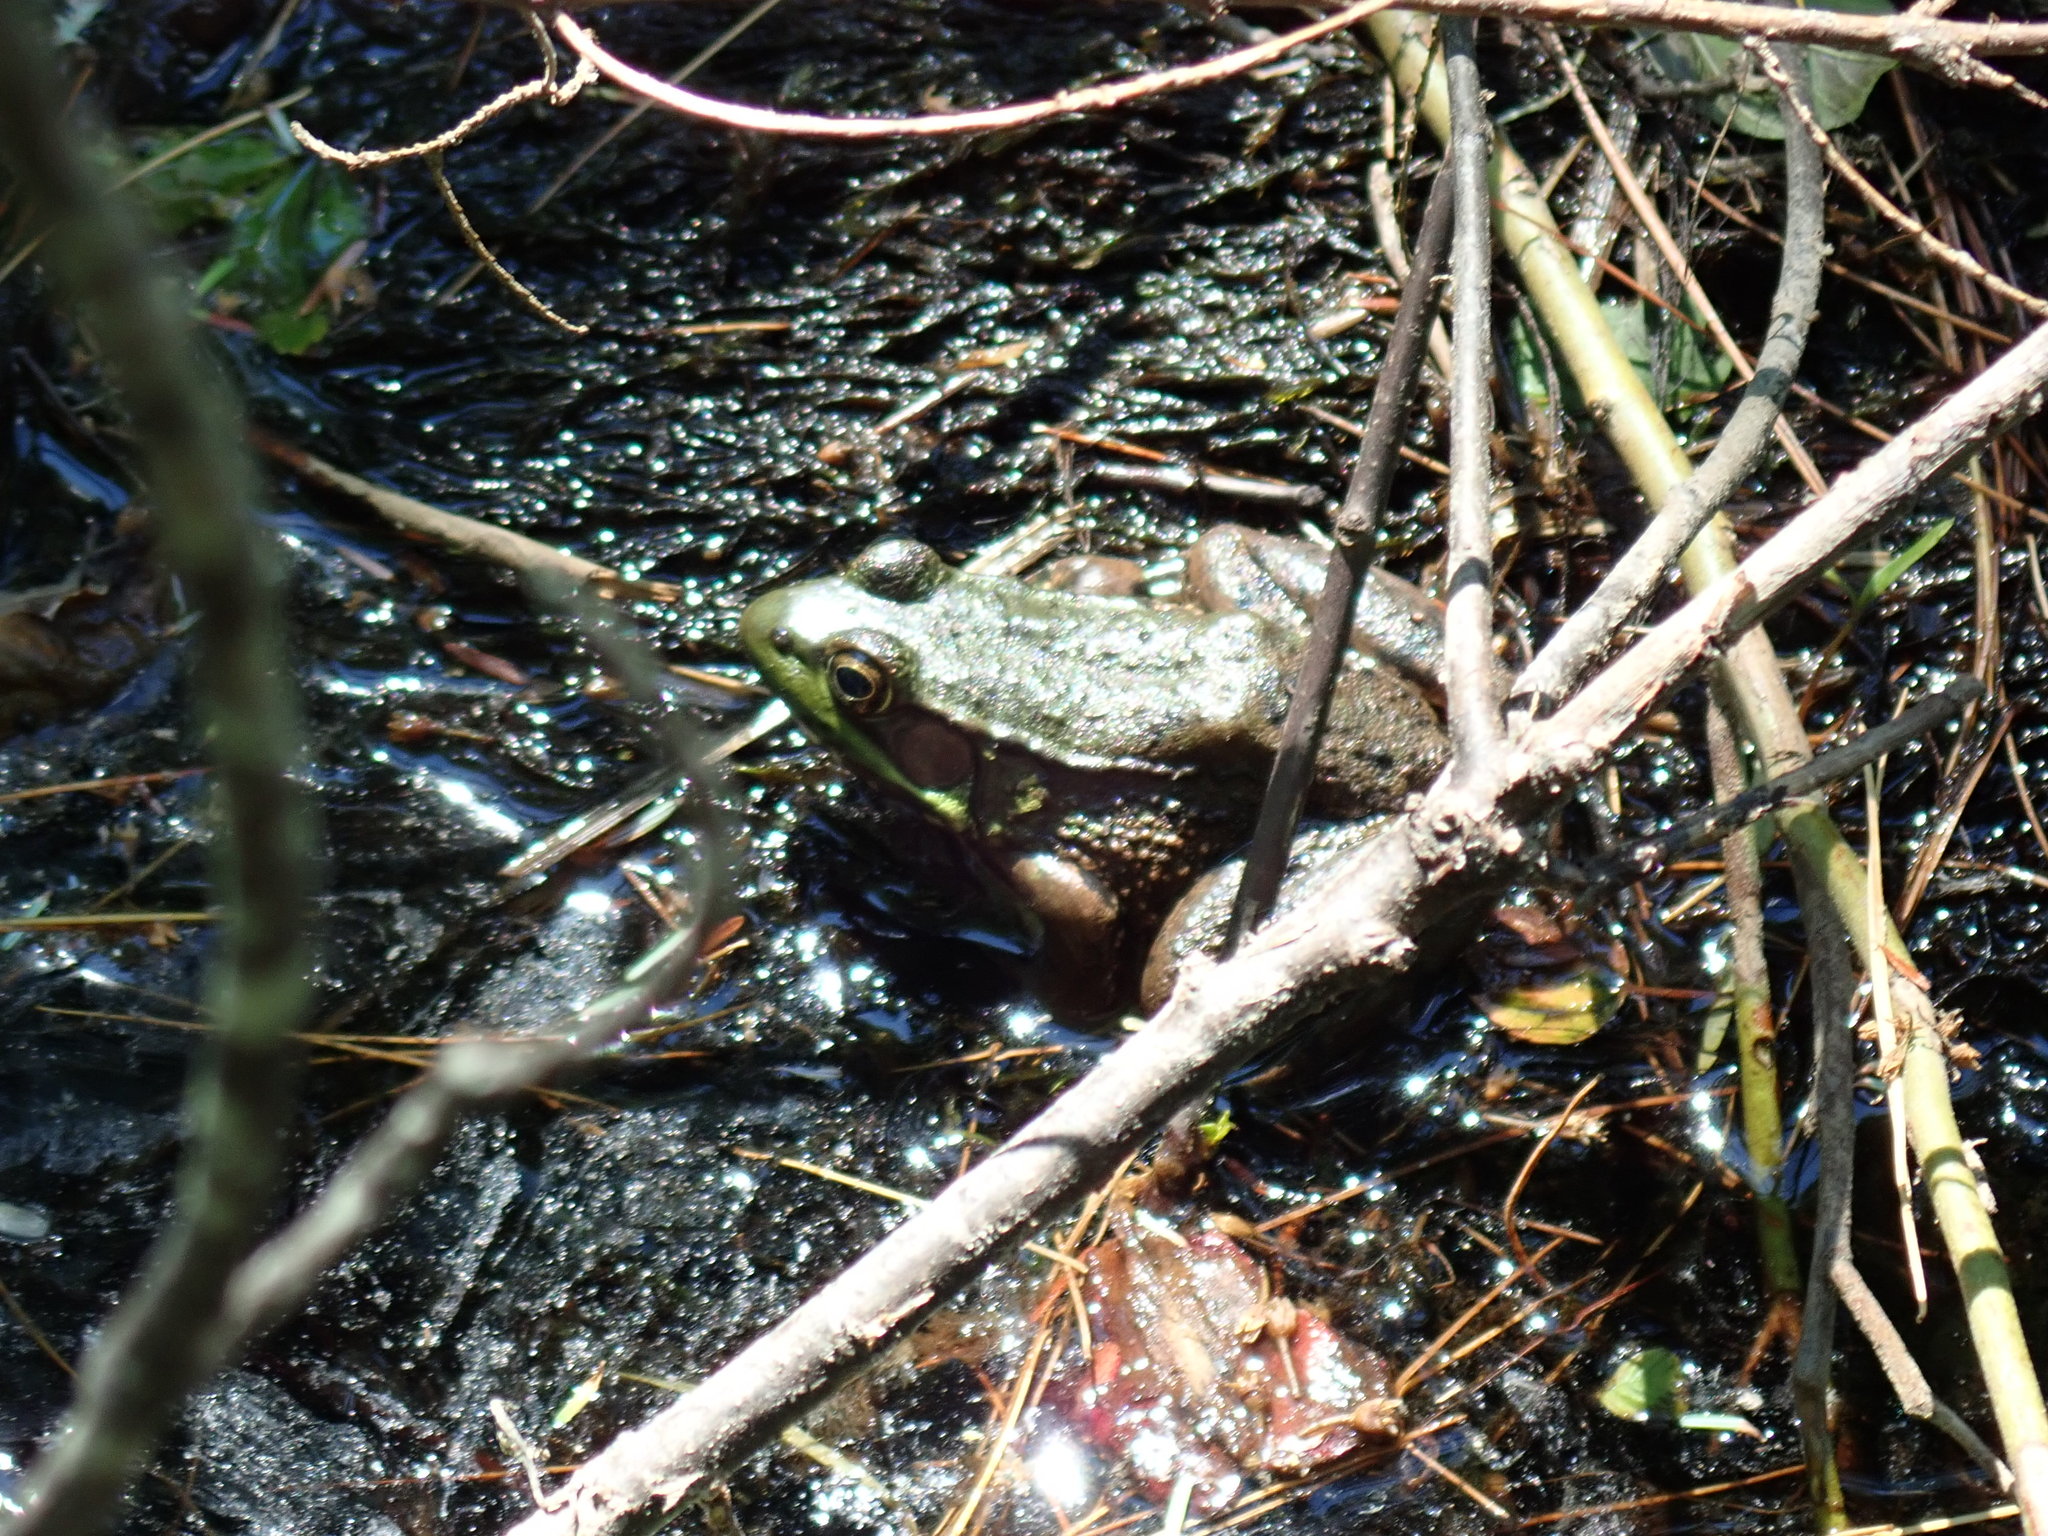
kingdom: Animalia
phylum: Chordata
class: Amphibia
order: Anura
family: Ranidae
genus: Lithobates
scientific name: Lithobates clamitans
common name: Green frog
